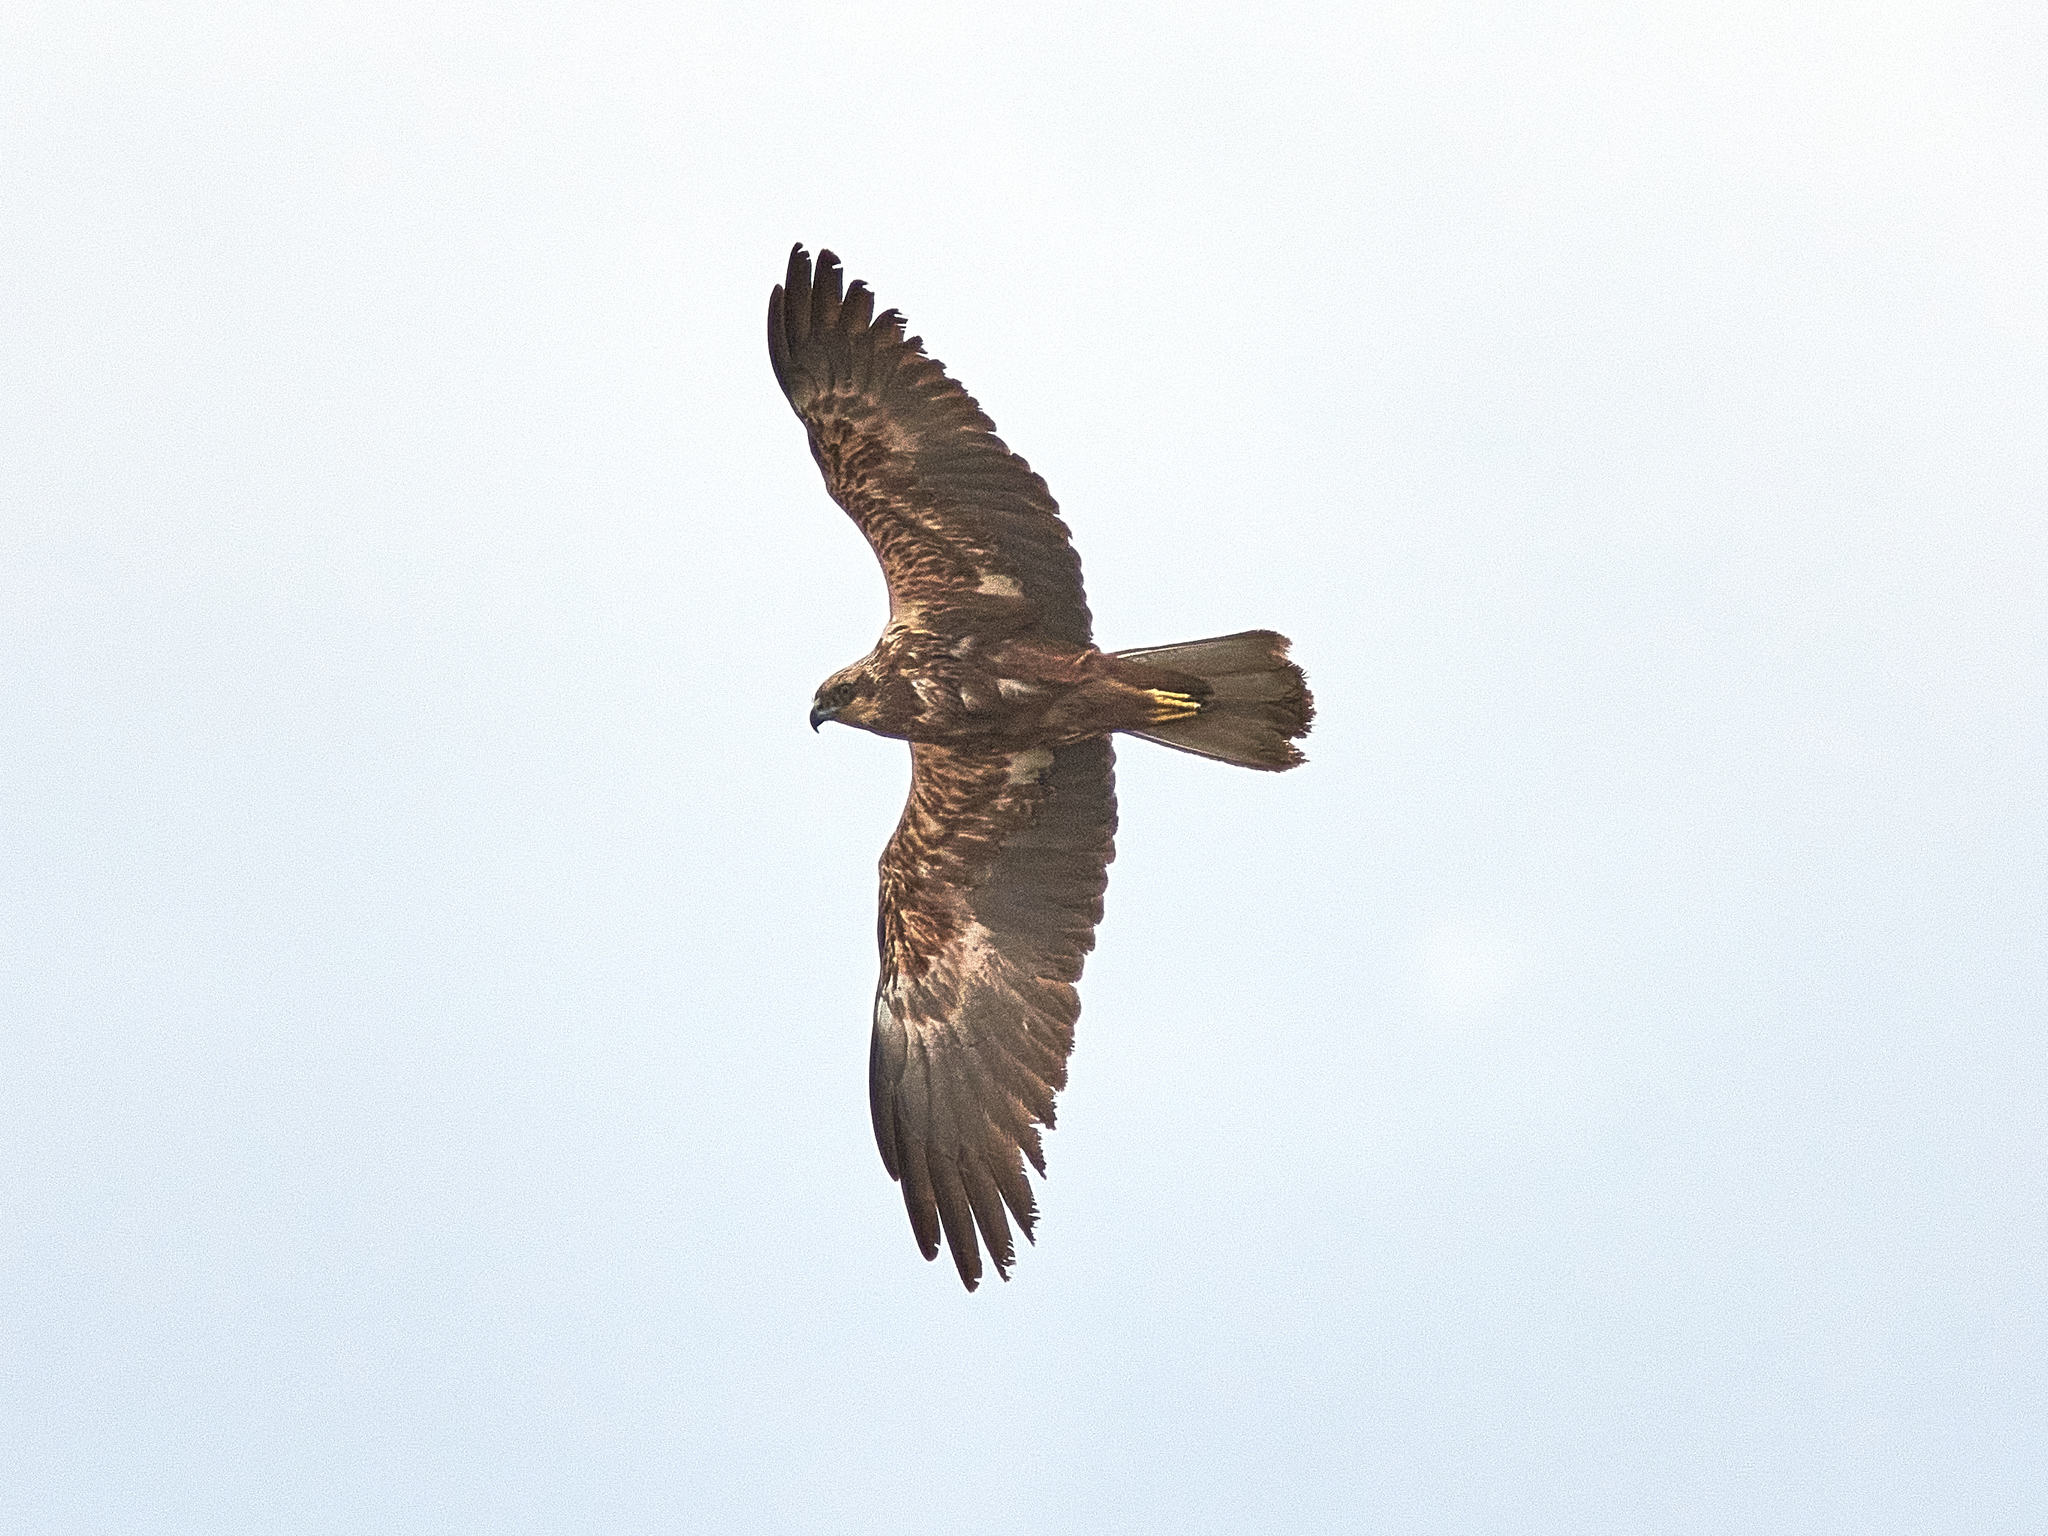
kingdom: Animalia
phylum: Chordata
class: Aves
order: Accipitriformes
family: Accipitridae
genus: Circus
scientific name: Circus aeruginosus
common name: Western marsh harrier
